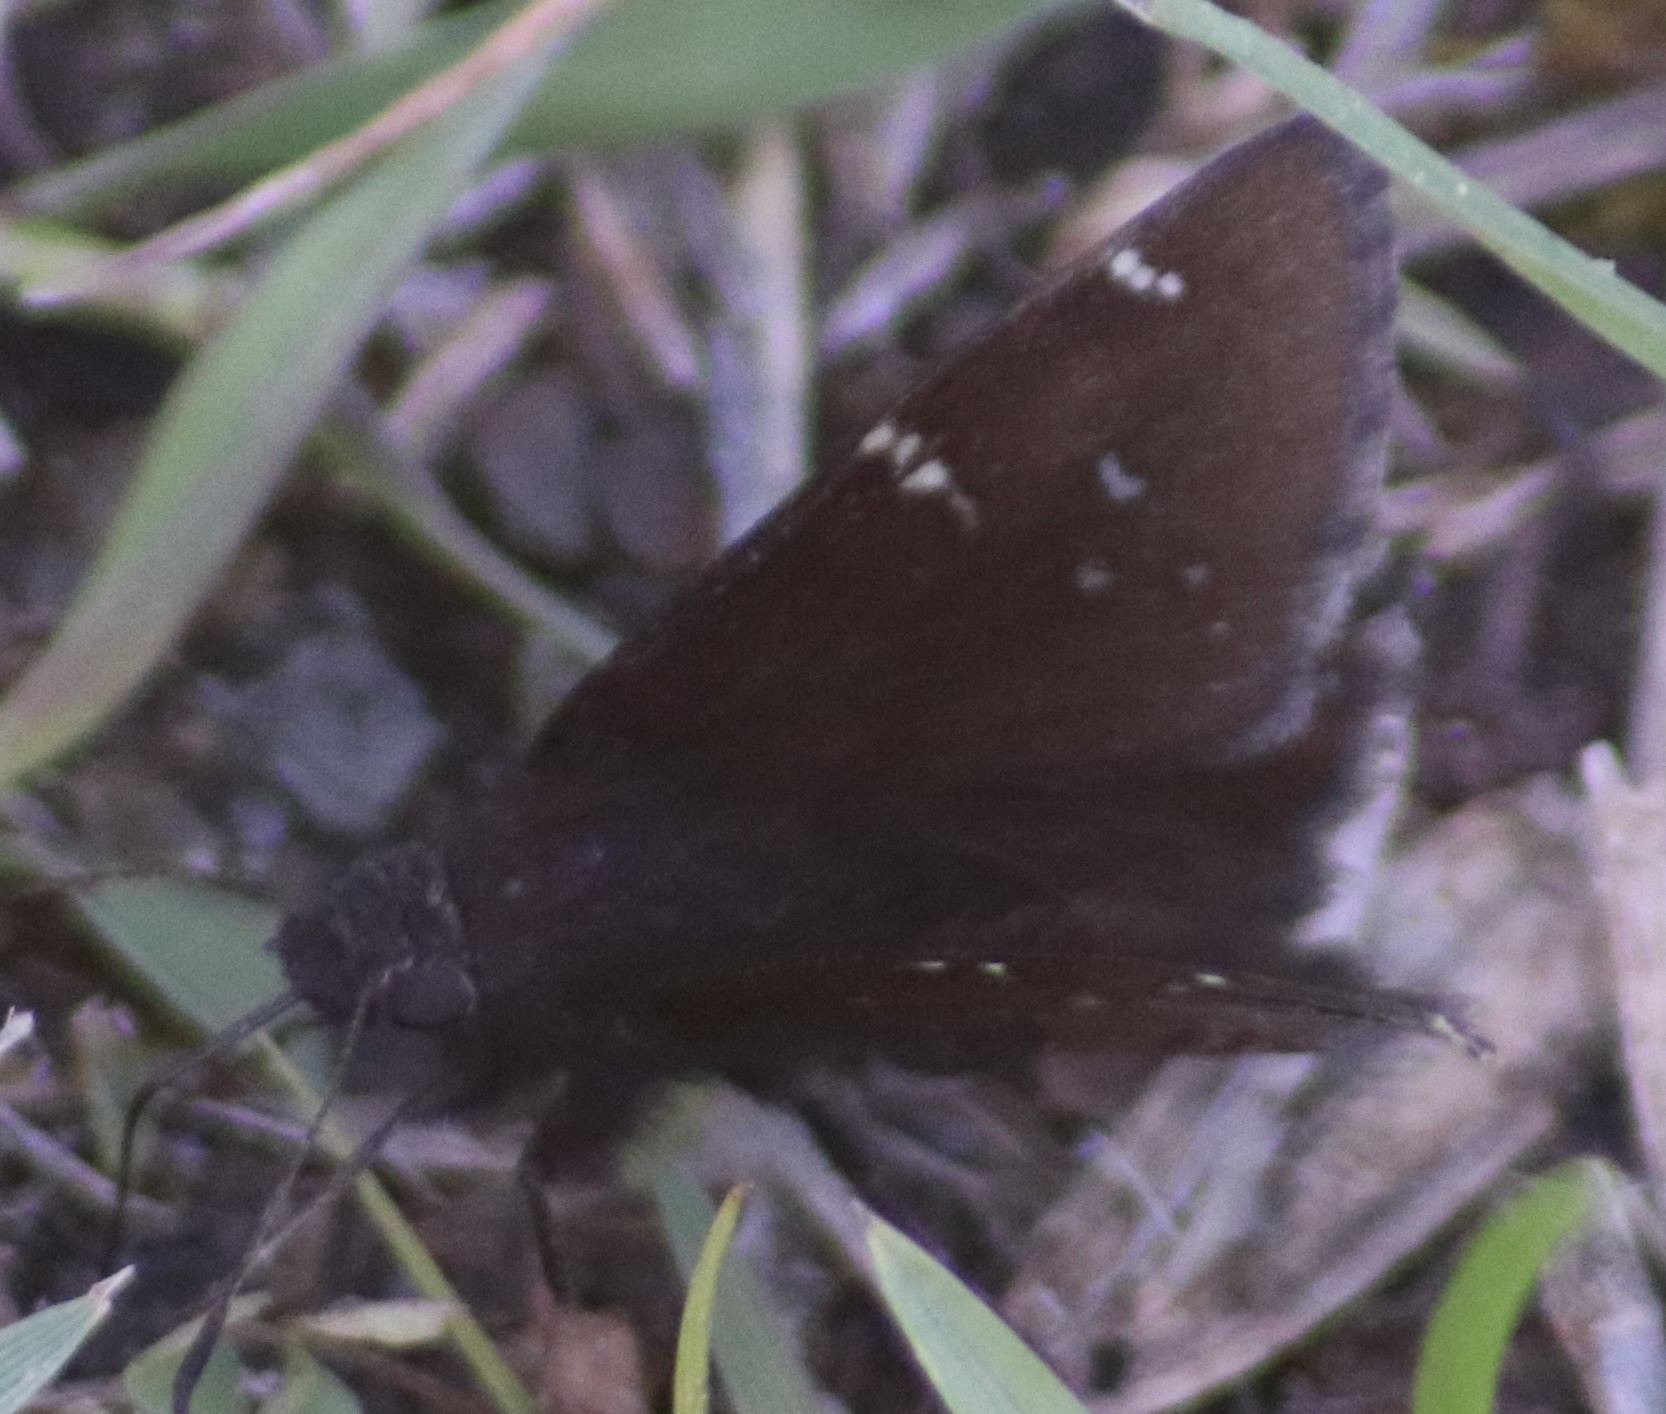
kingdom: Animalia
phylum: Arthropoda
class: Insecta
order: Lepidoptera
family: Hesperiidae
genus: Thorybes
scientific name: Thorybes pylades
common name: Northern cloudywing
